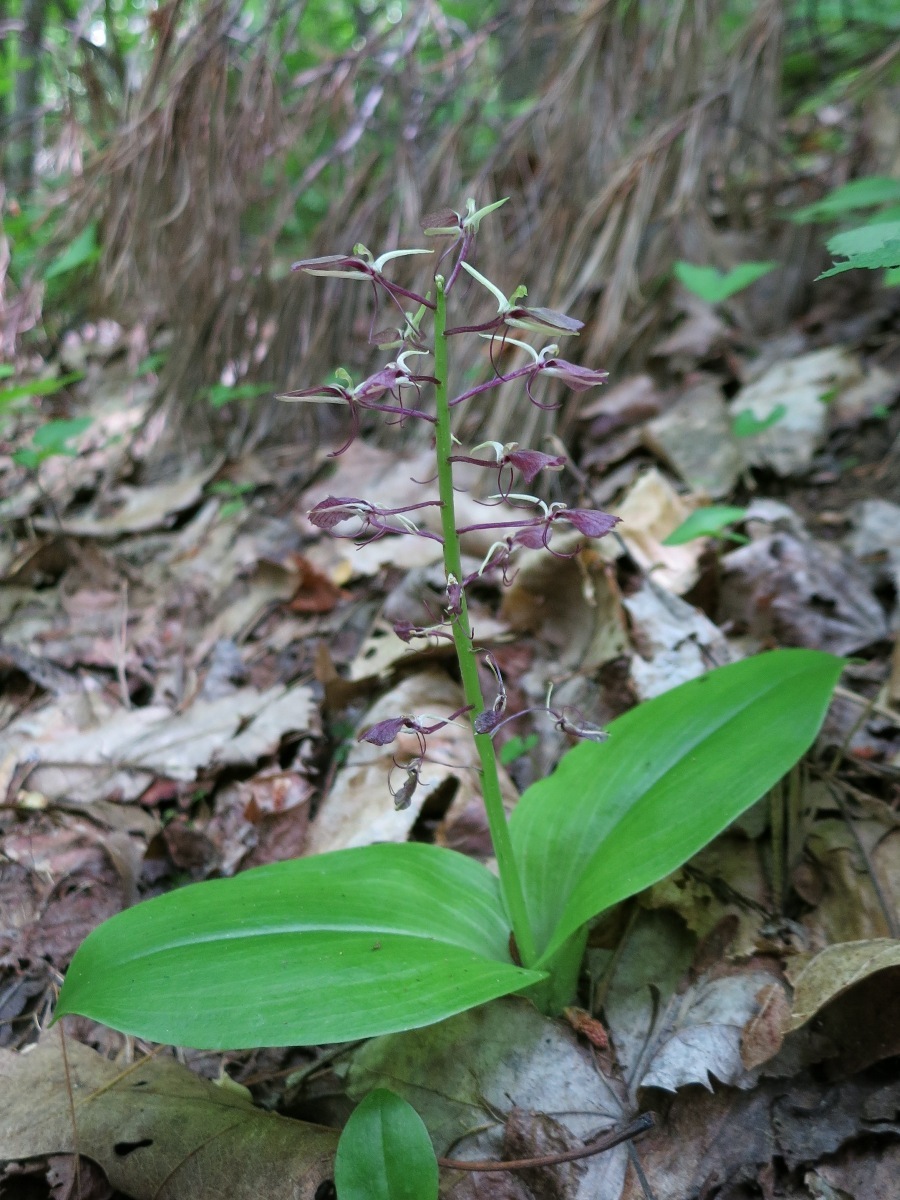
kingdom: Plantae
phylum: Tracheophyta
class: Liliopsida
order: Asparagales
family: Orchidaceae
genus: Liparis
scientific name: Liparis liliifolia
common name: Brown wide-lip orchid
